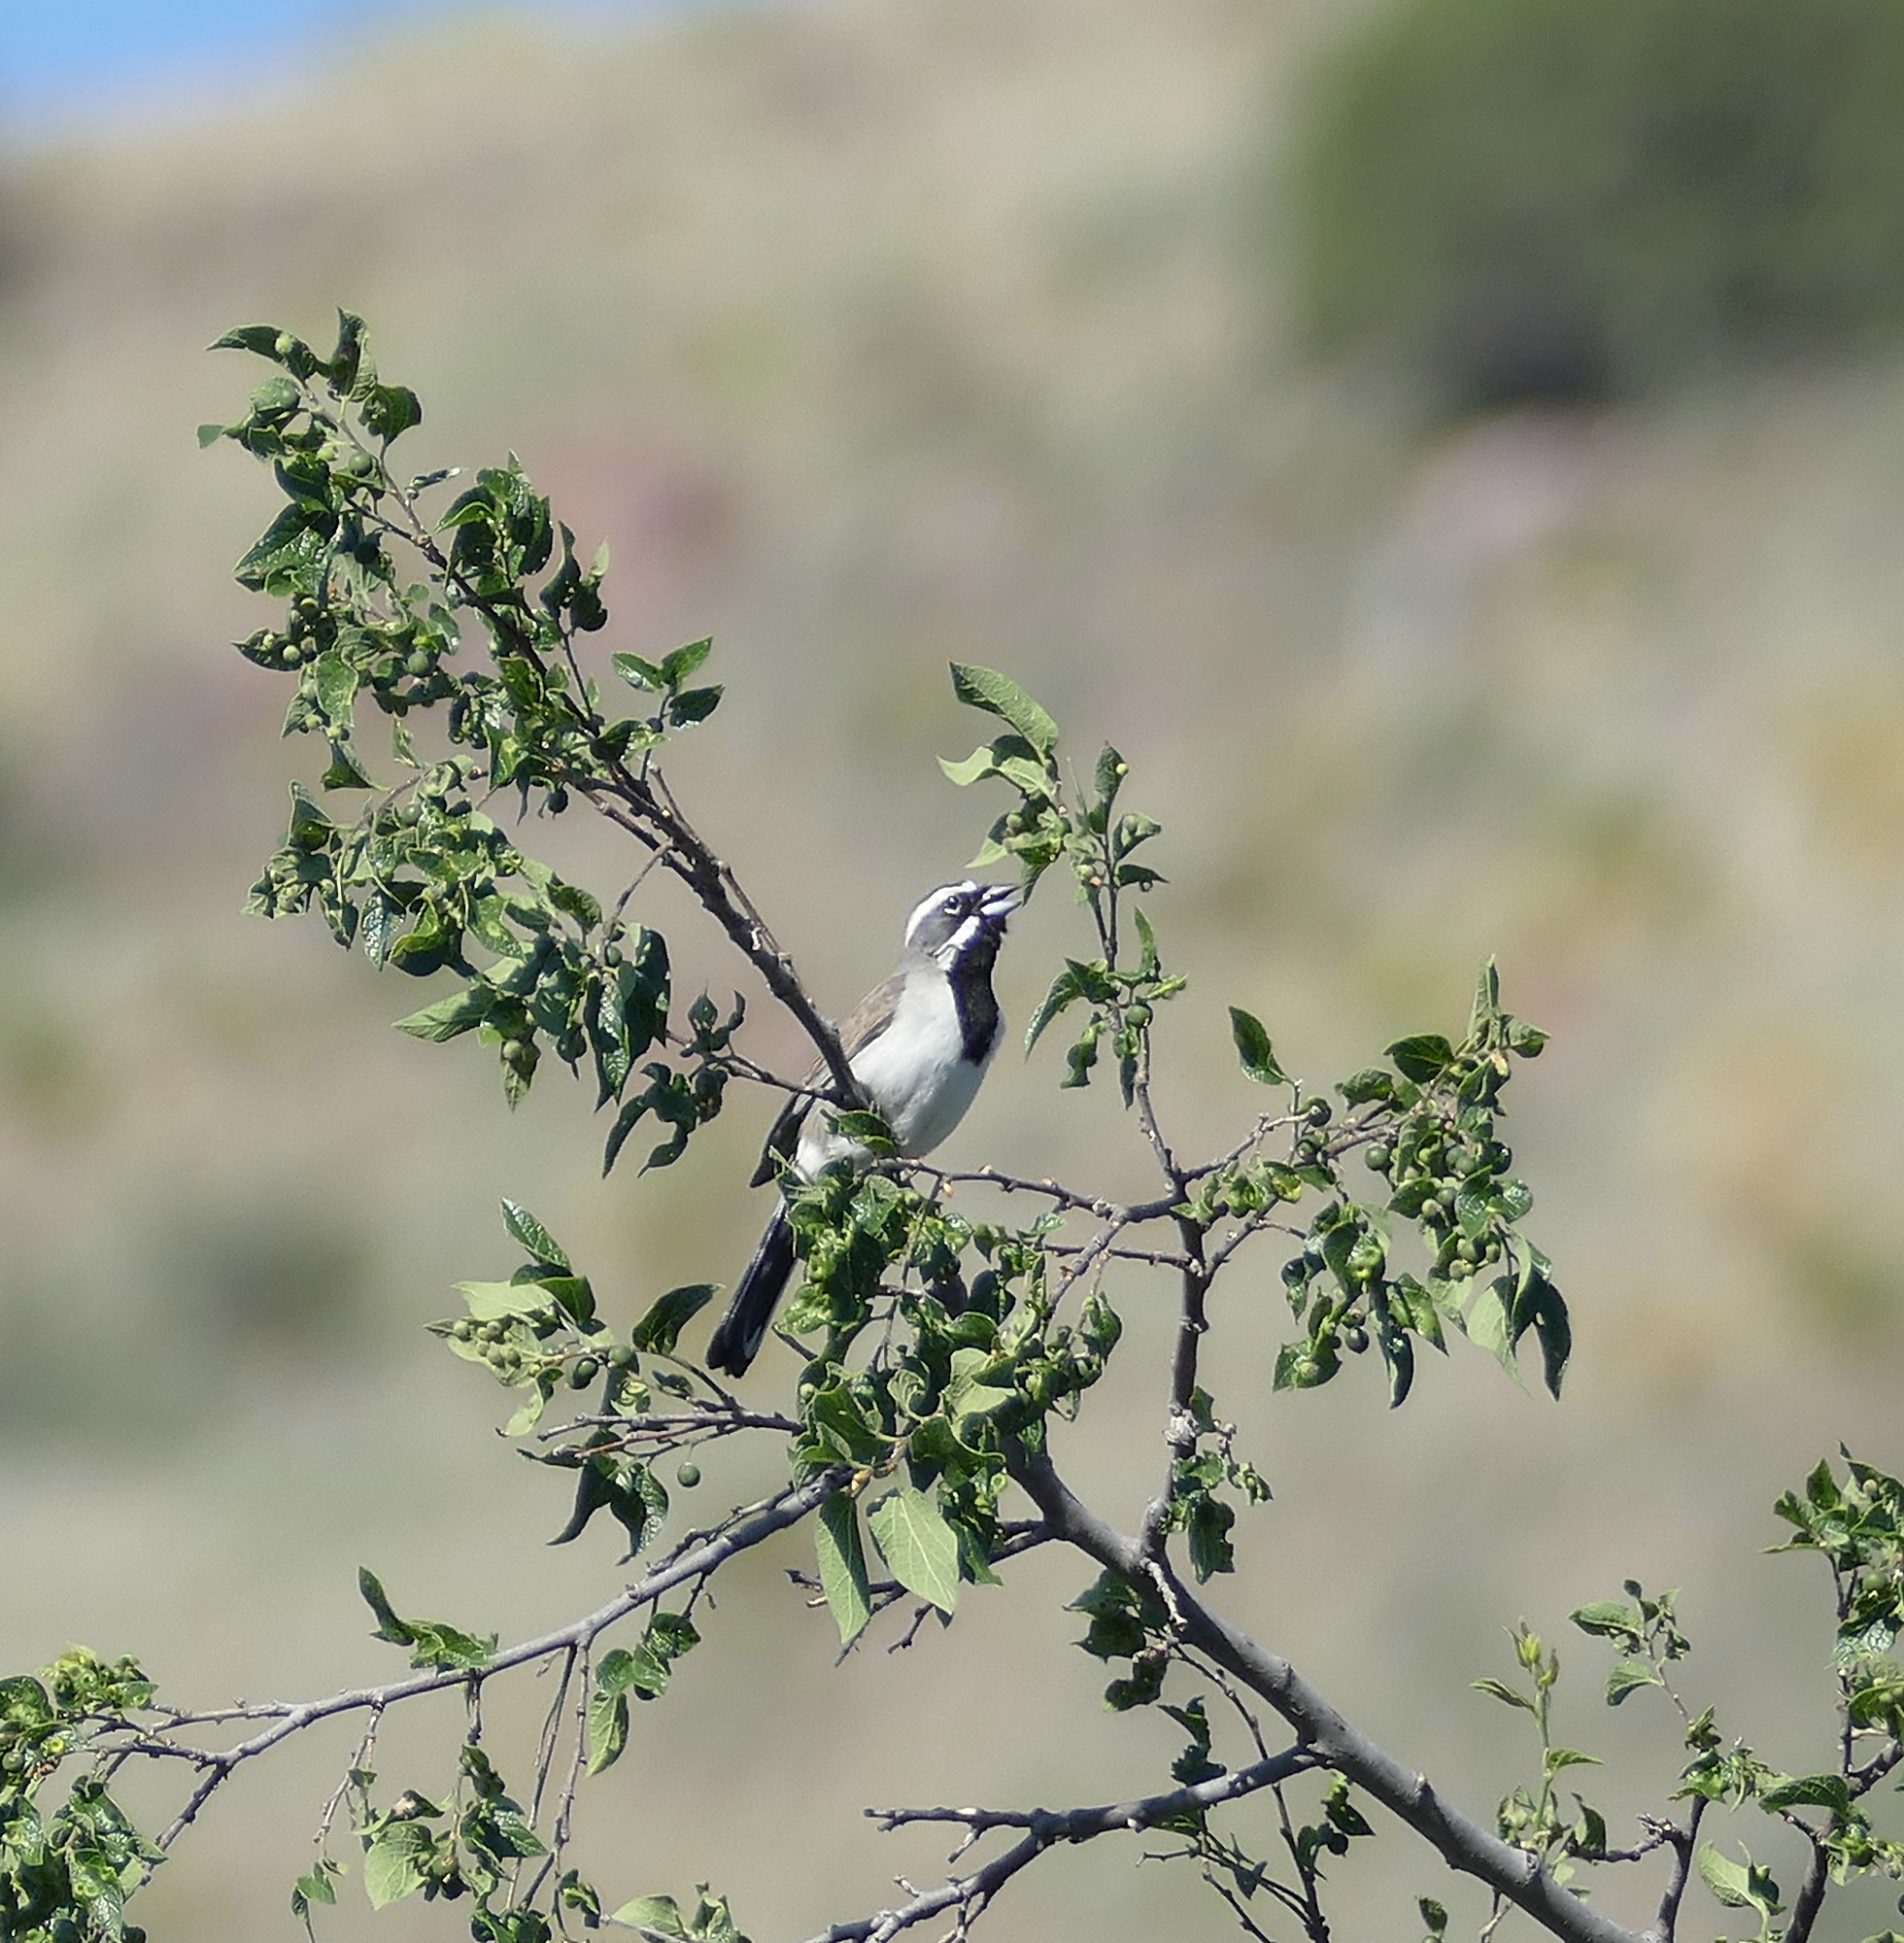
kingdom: Animalia
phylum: Chordata
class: Aves
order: Passeriformes
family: Passerellidae
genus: Amphispiza
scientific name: Amphispiza bilineata
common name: Black-throated sparrow
